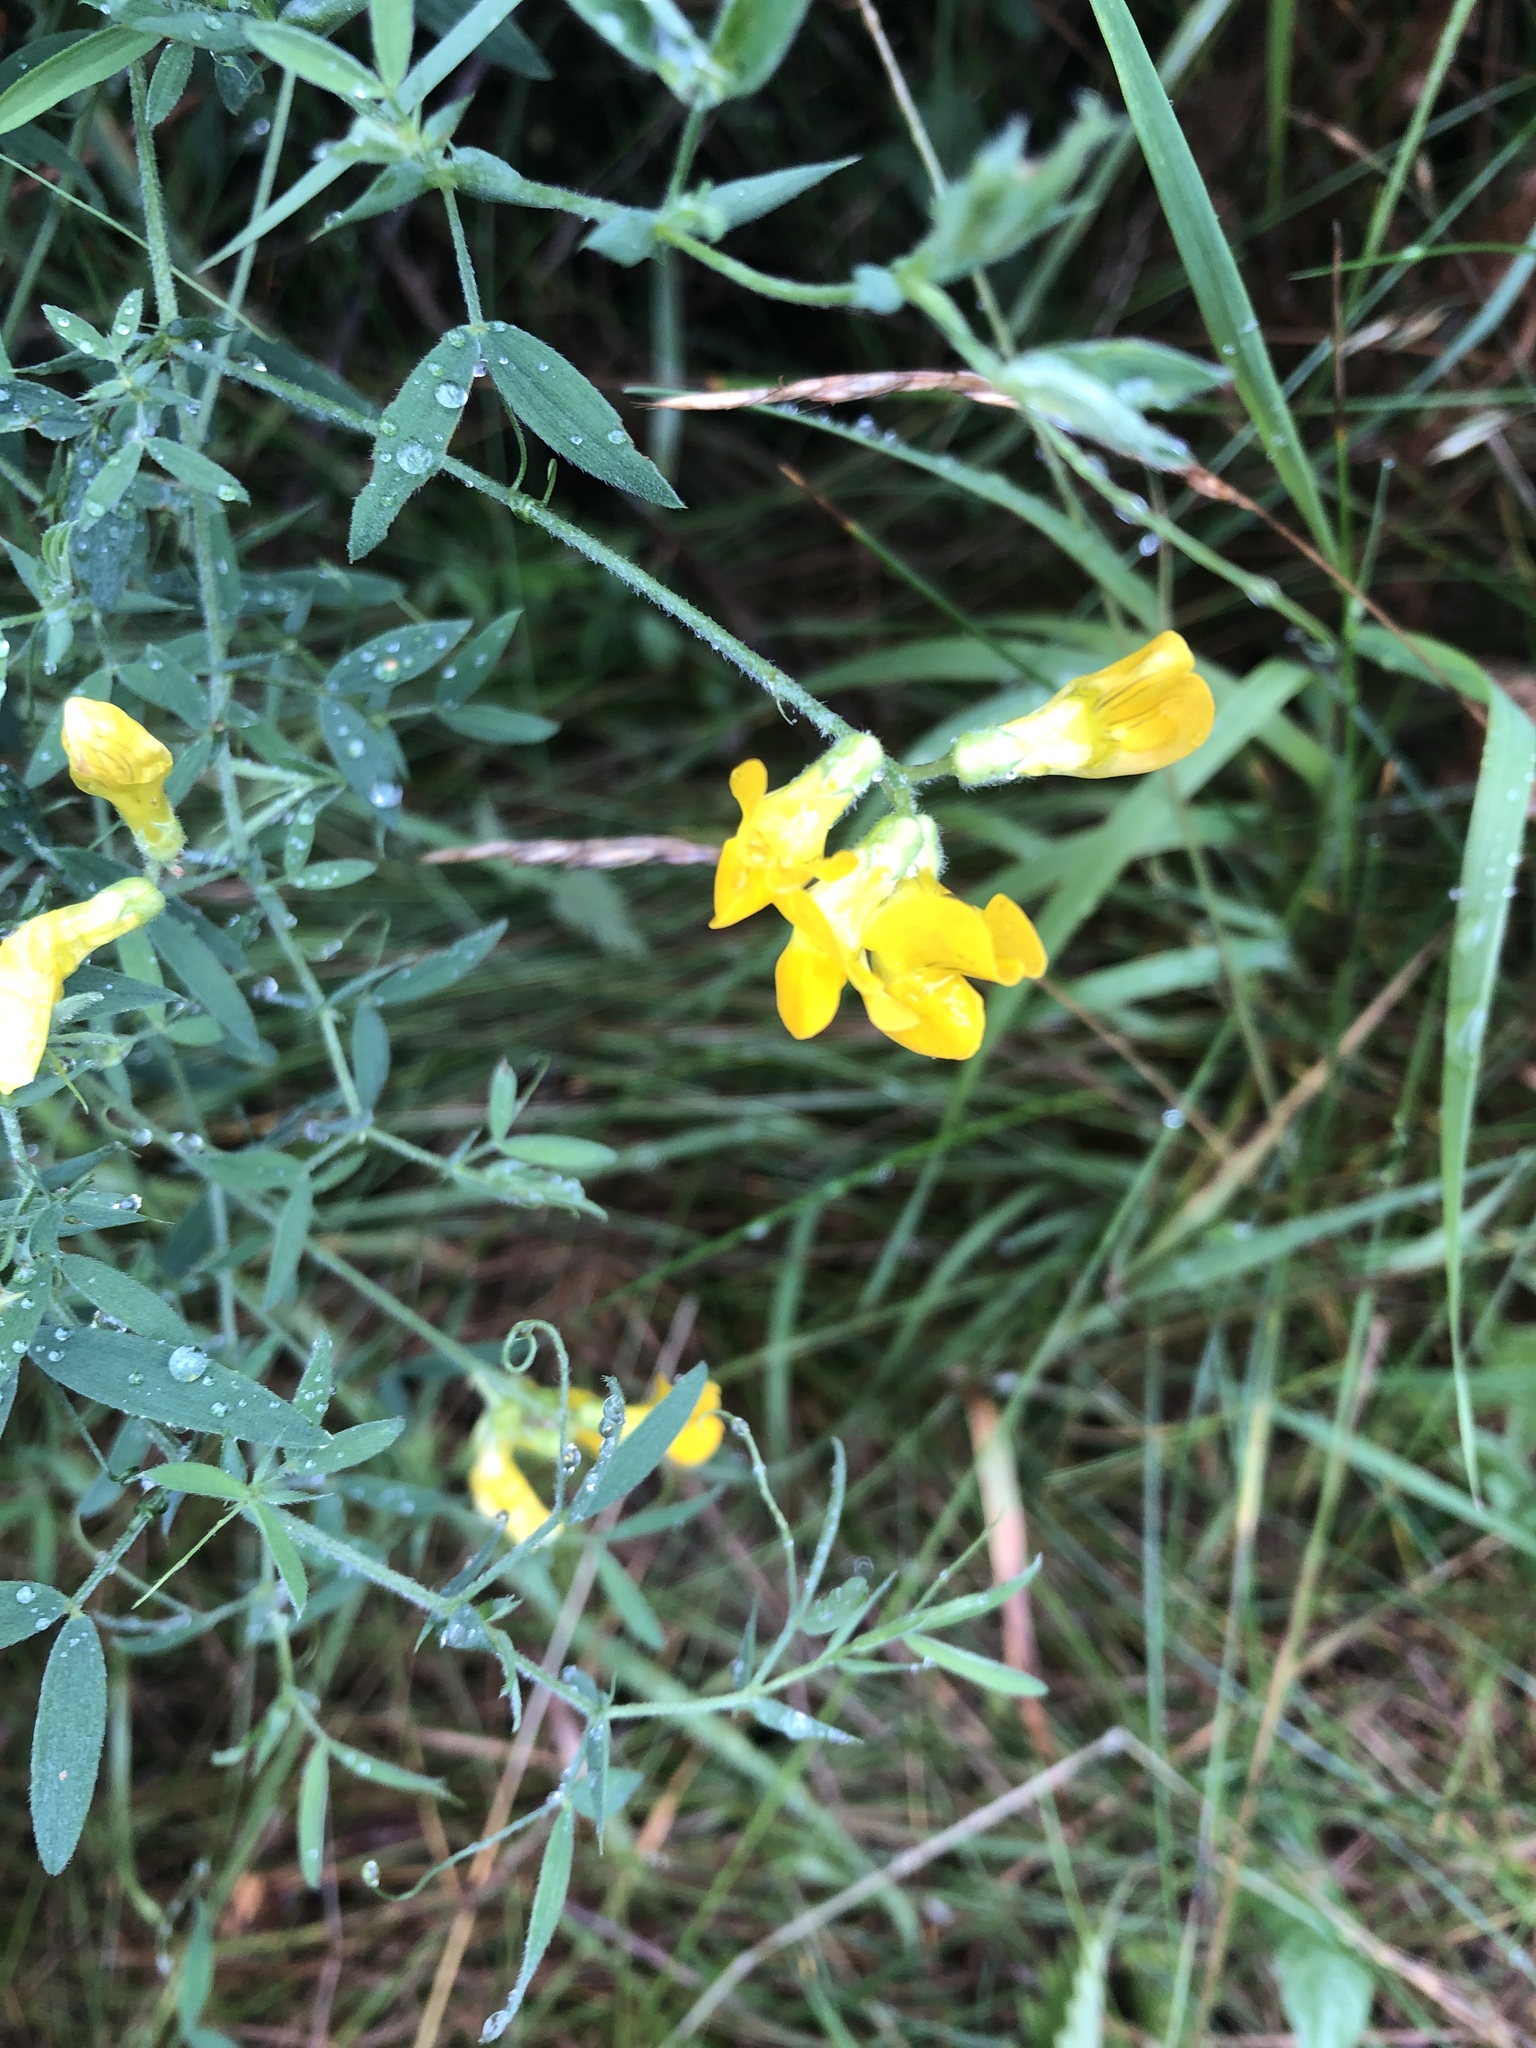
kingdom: Plantae
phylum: Tracheophyta
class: Magnoliopsida
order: Fabales
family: Fabaceae
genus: Lathyrus
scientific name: Lathyrus pratensis
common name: Meadow vetchling
